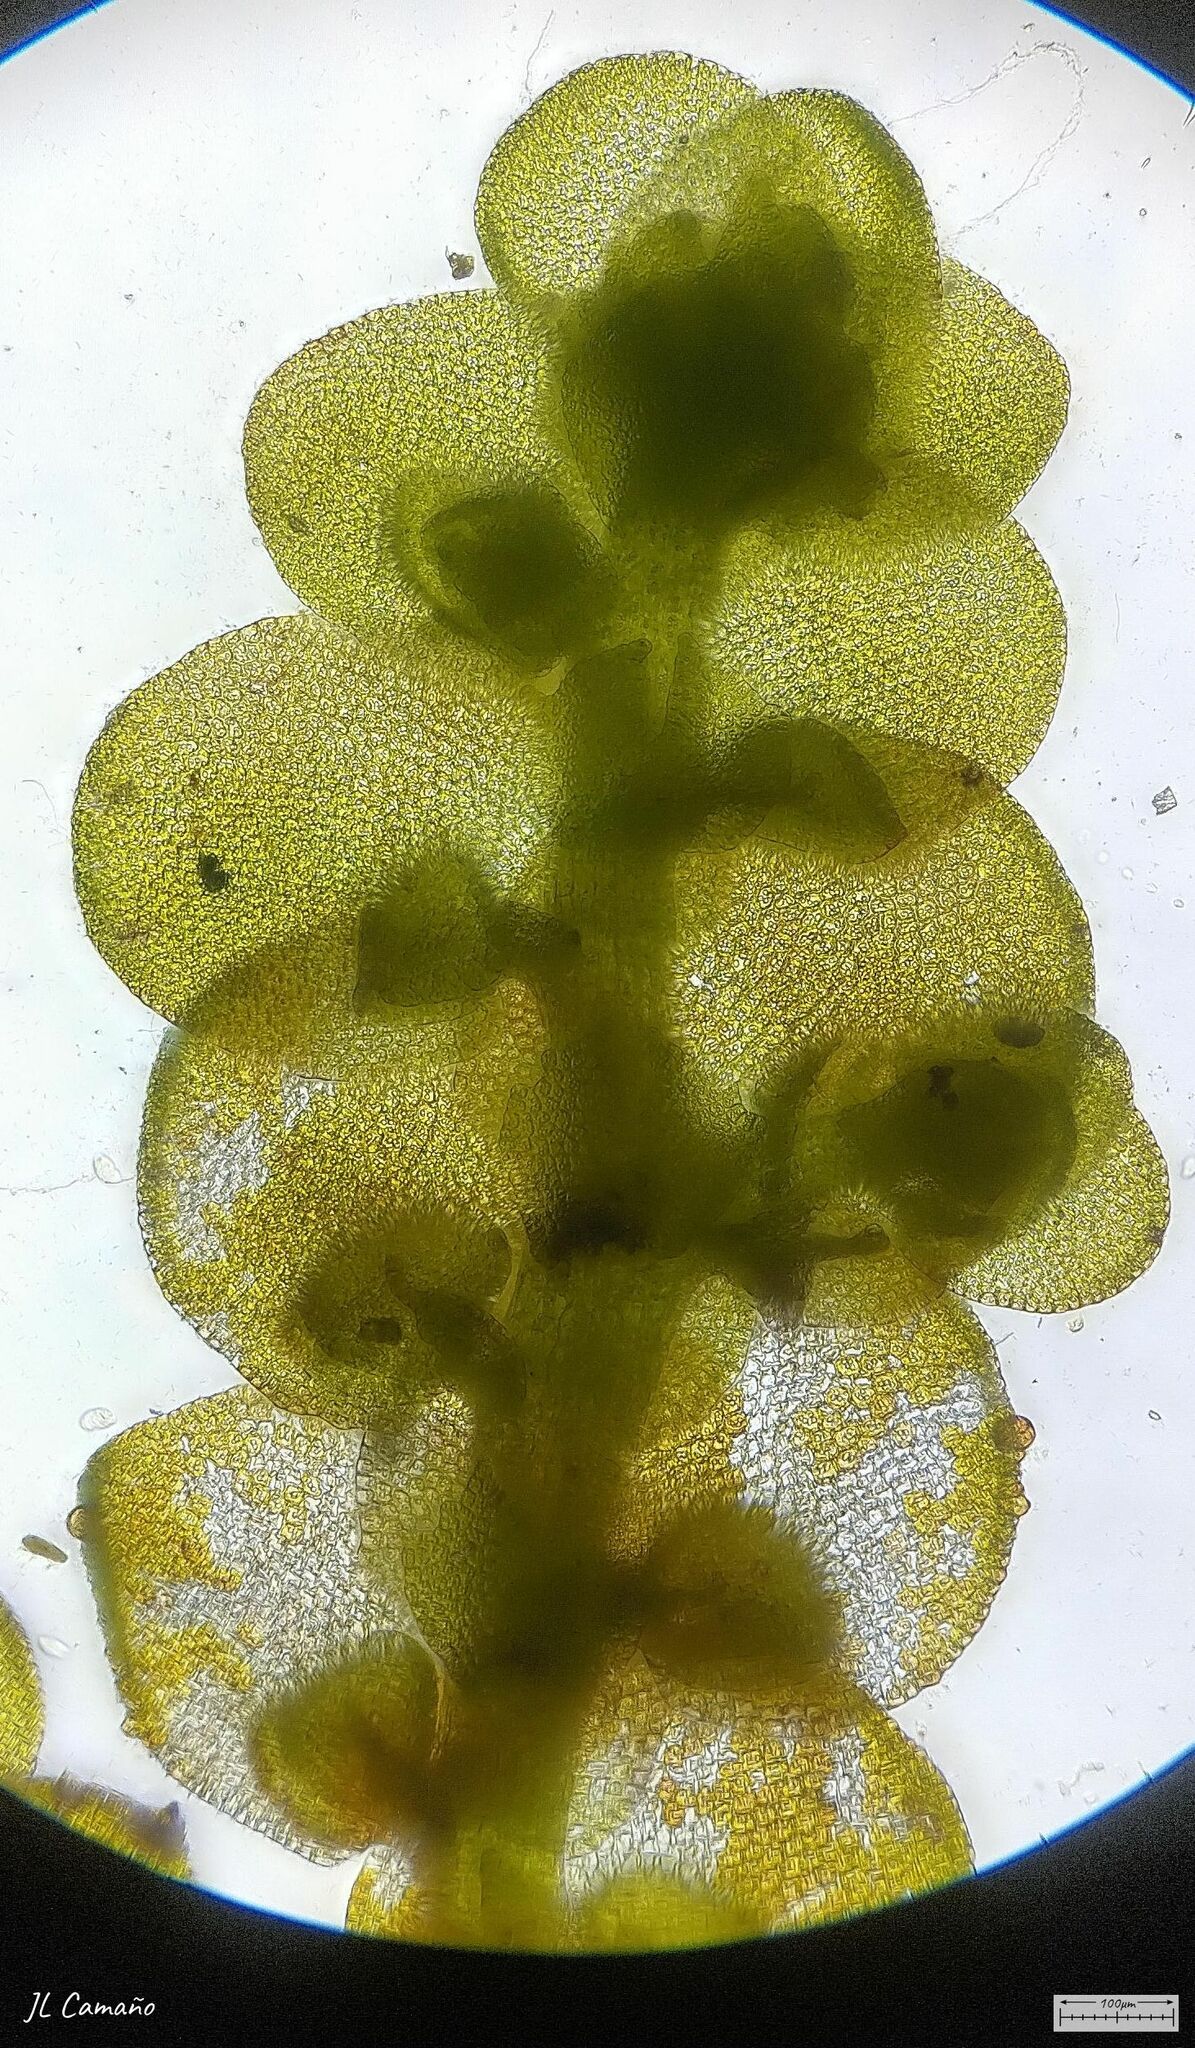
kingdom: Plantae
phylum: Marchantiophyta
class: Jungermanniopsida
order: Porellales
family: Frullaniaceae
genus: Frullania
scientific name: Frullania dilatata
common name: Dilated scalewort
